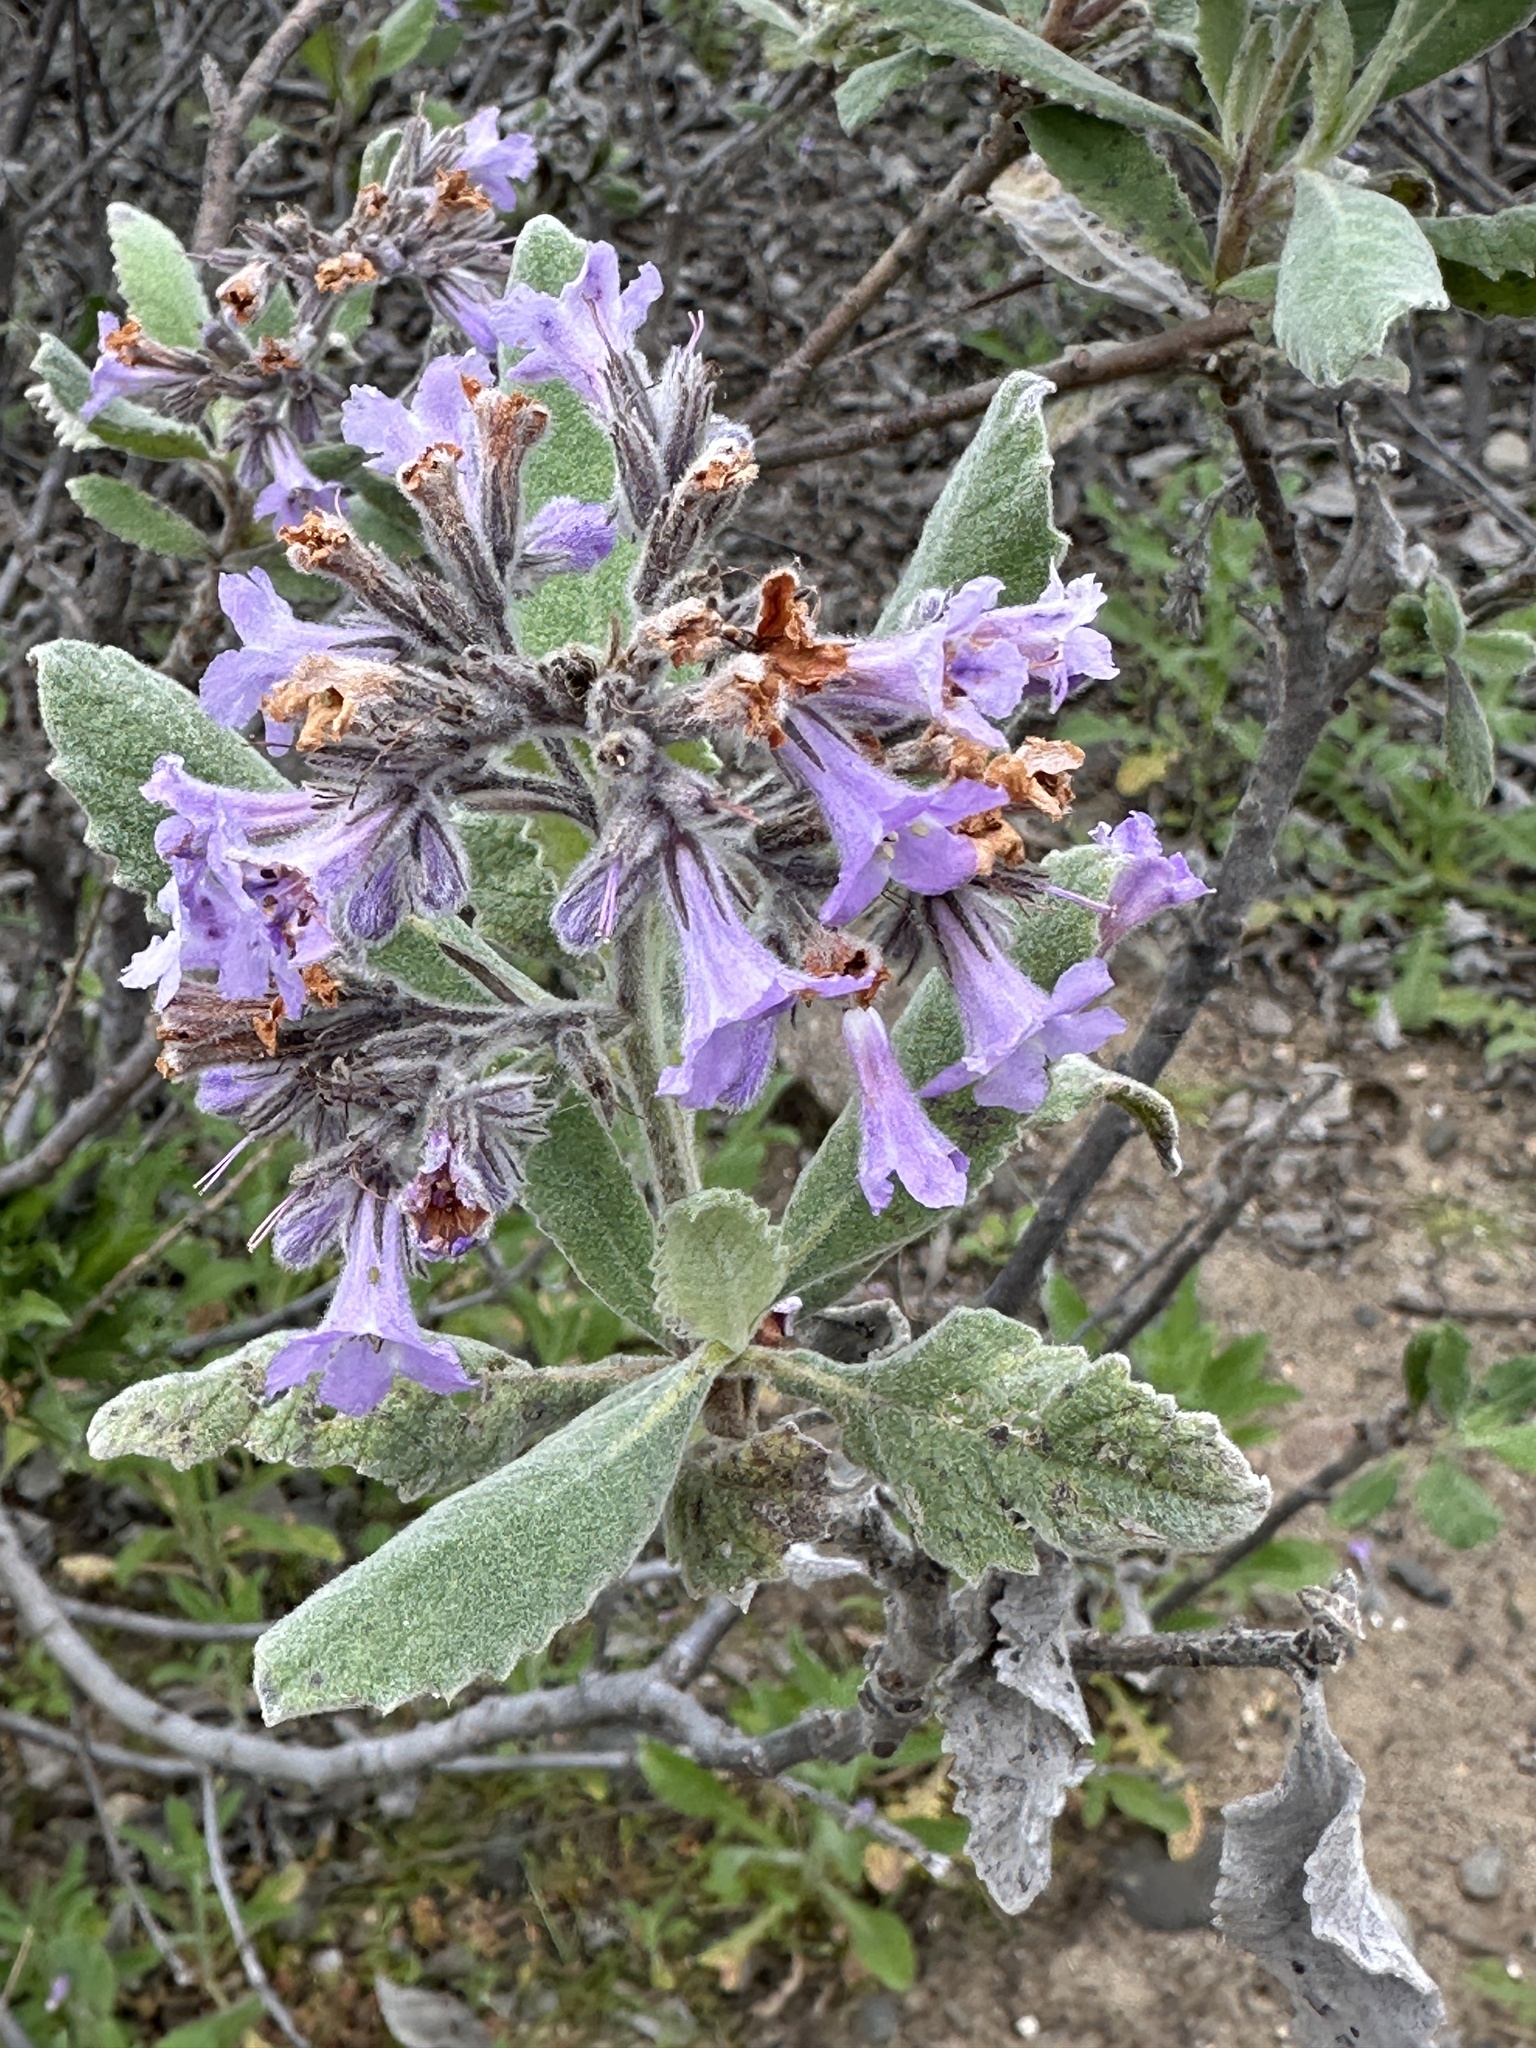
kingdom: Plantae
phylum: Tracheophyta
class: Magnoliopsida
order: Boraginales
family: Namaceae
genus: Eriodictyon
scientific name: Eriodictyon crassifolium
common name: Thick-leaf yerba-santa
